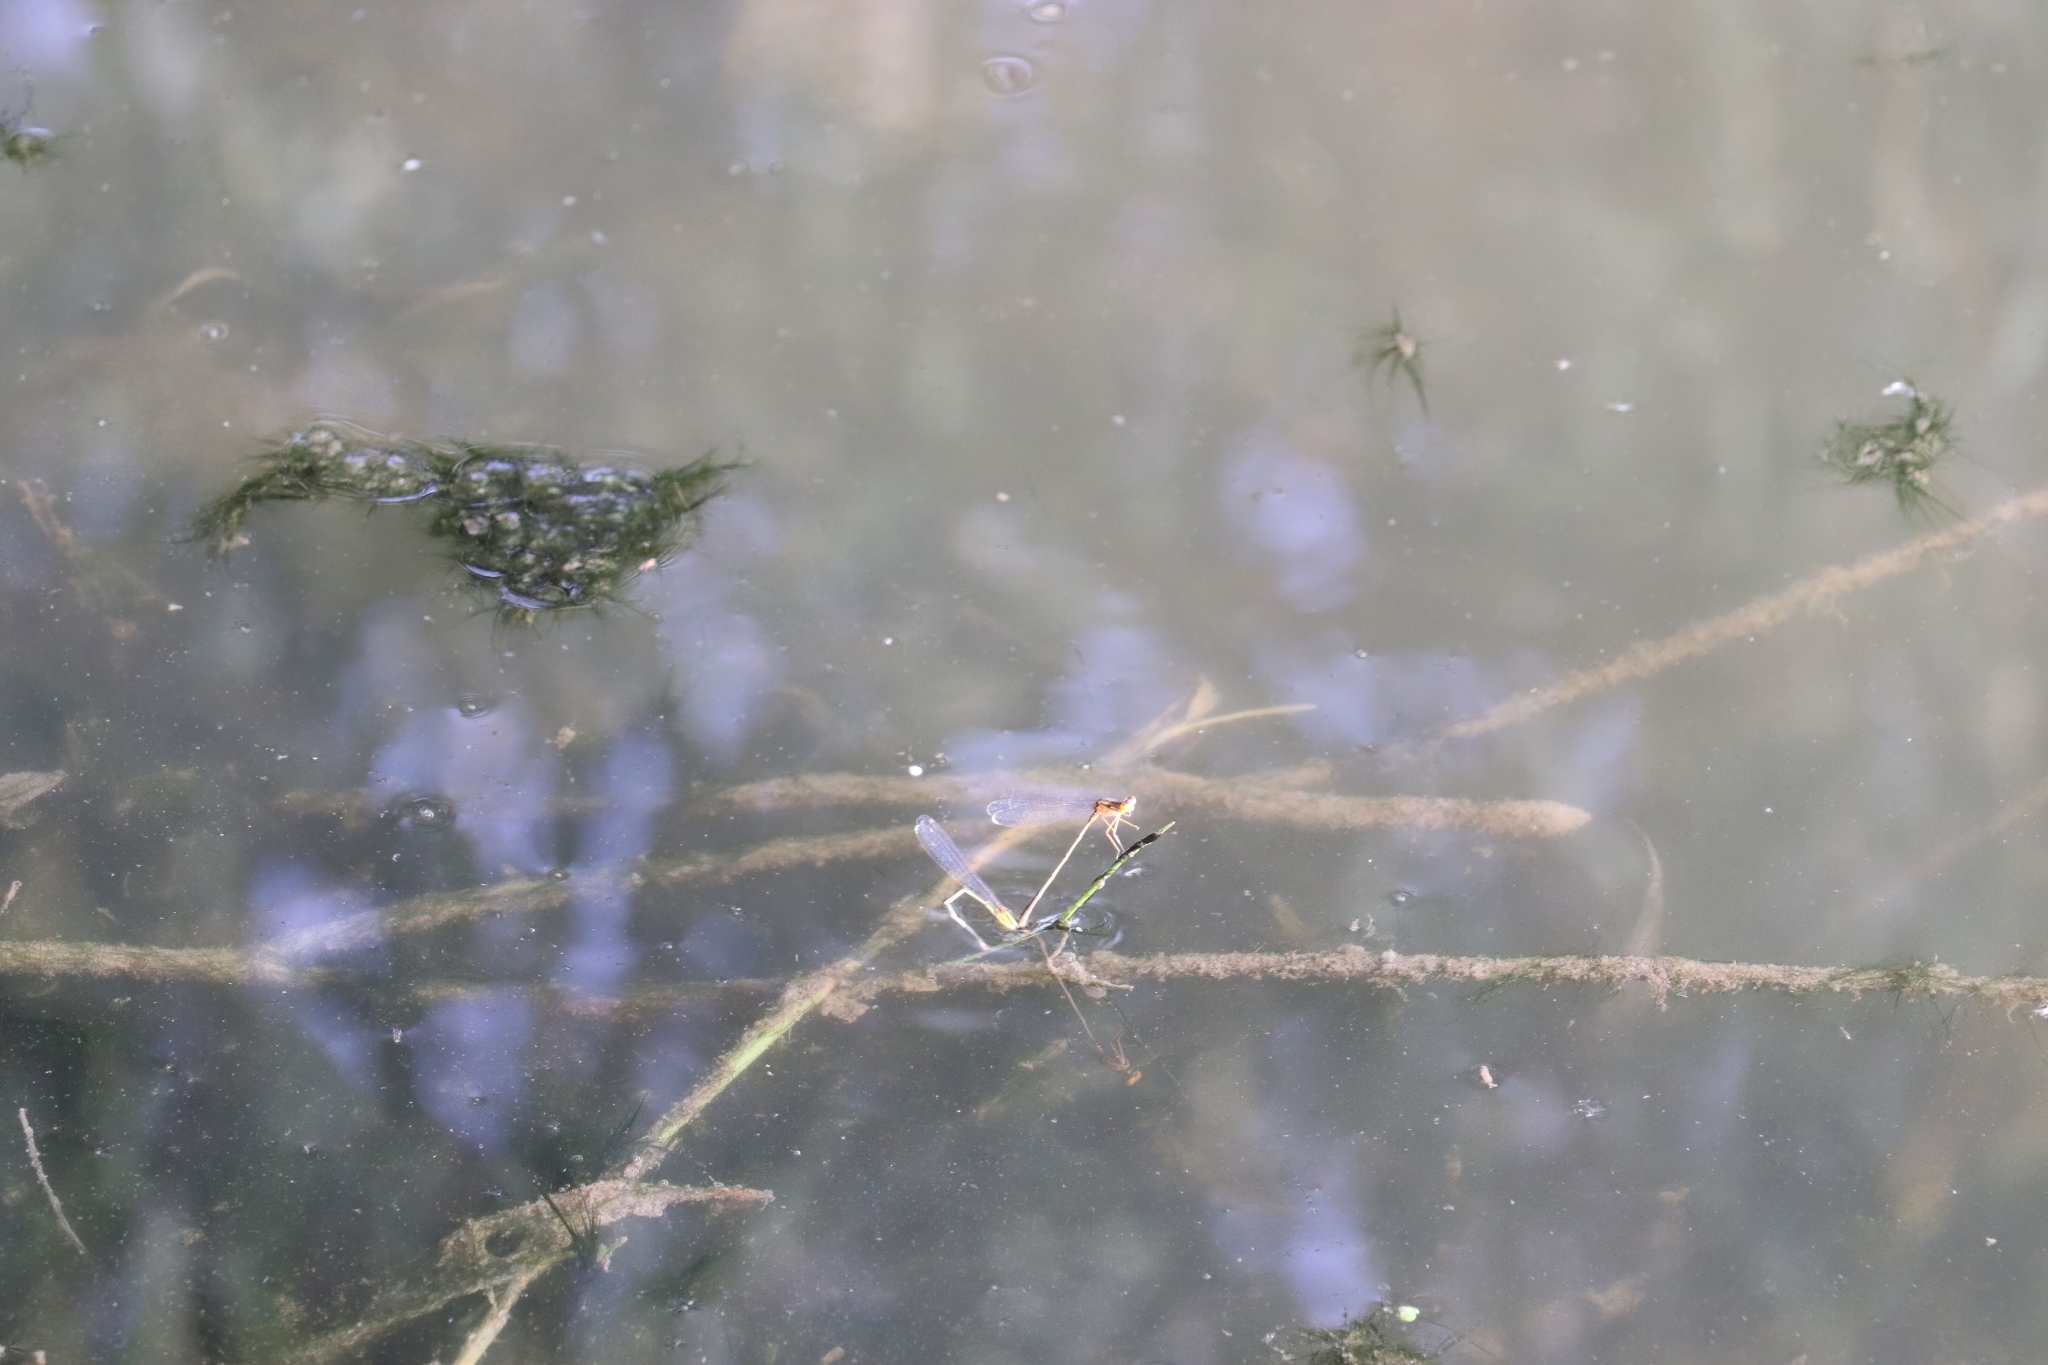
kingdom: Animalia
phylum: Arthropoda
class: Insecta
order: Odonata
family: Coenagrionidae
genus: Enallagma
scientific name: Enallagma signatum
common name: Orange bluet
